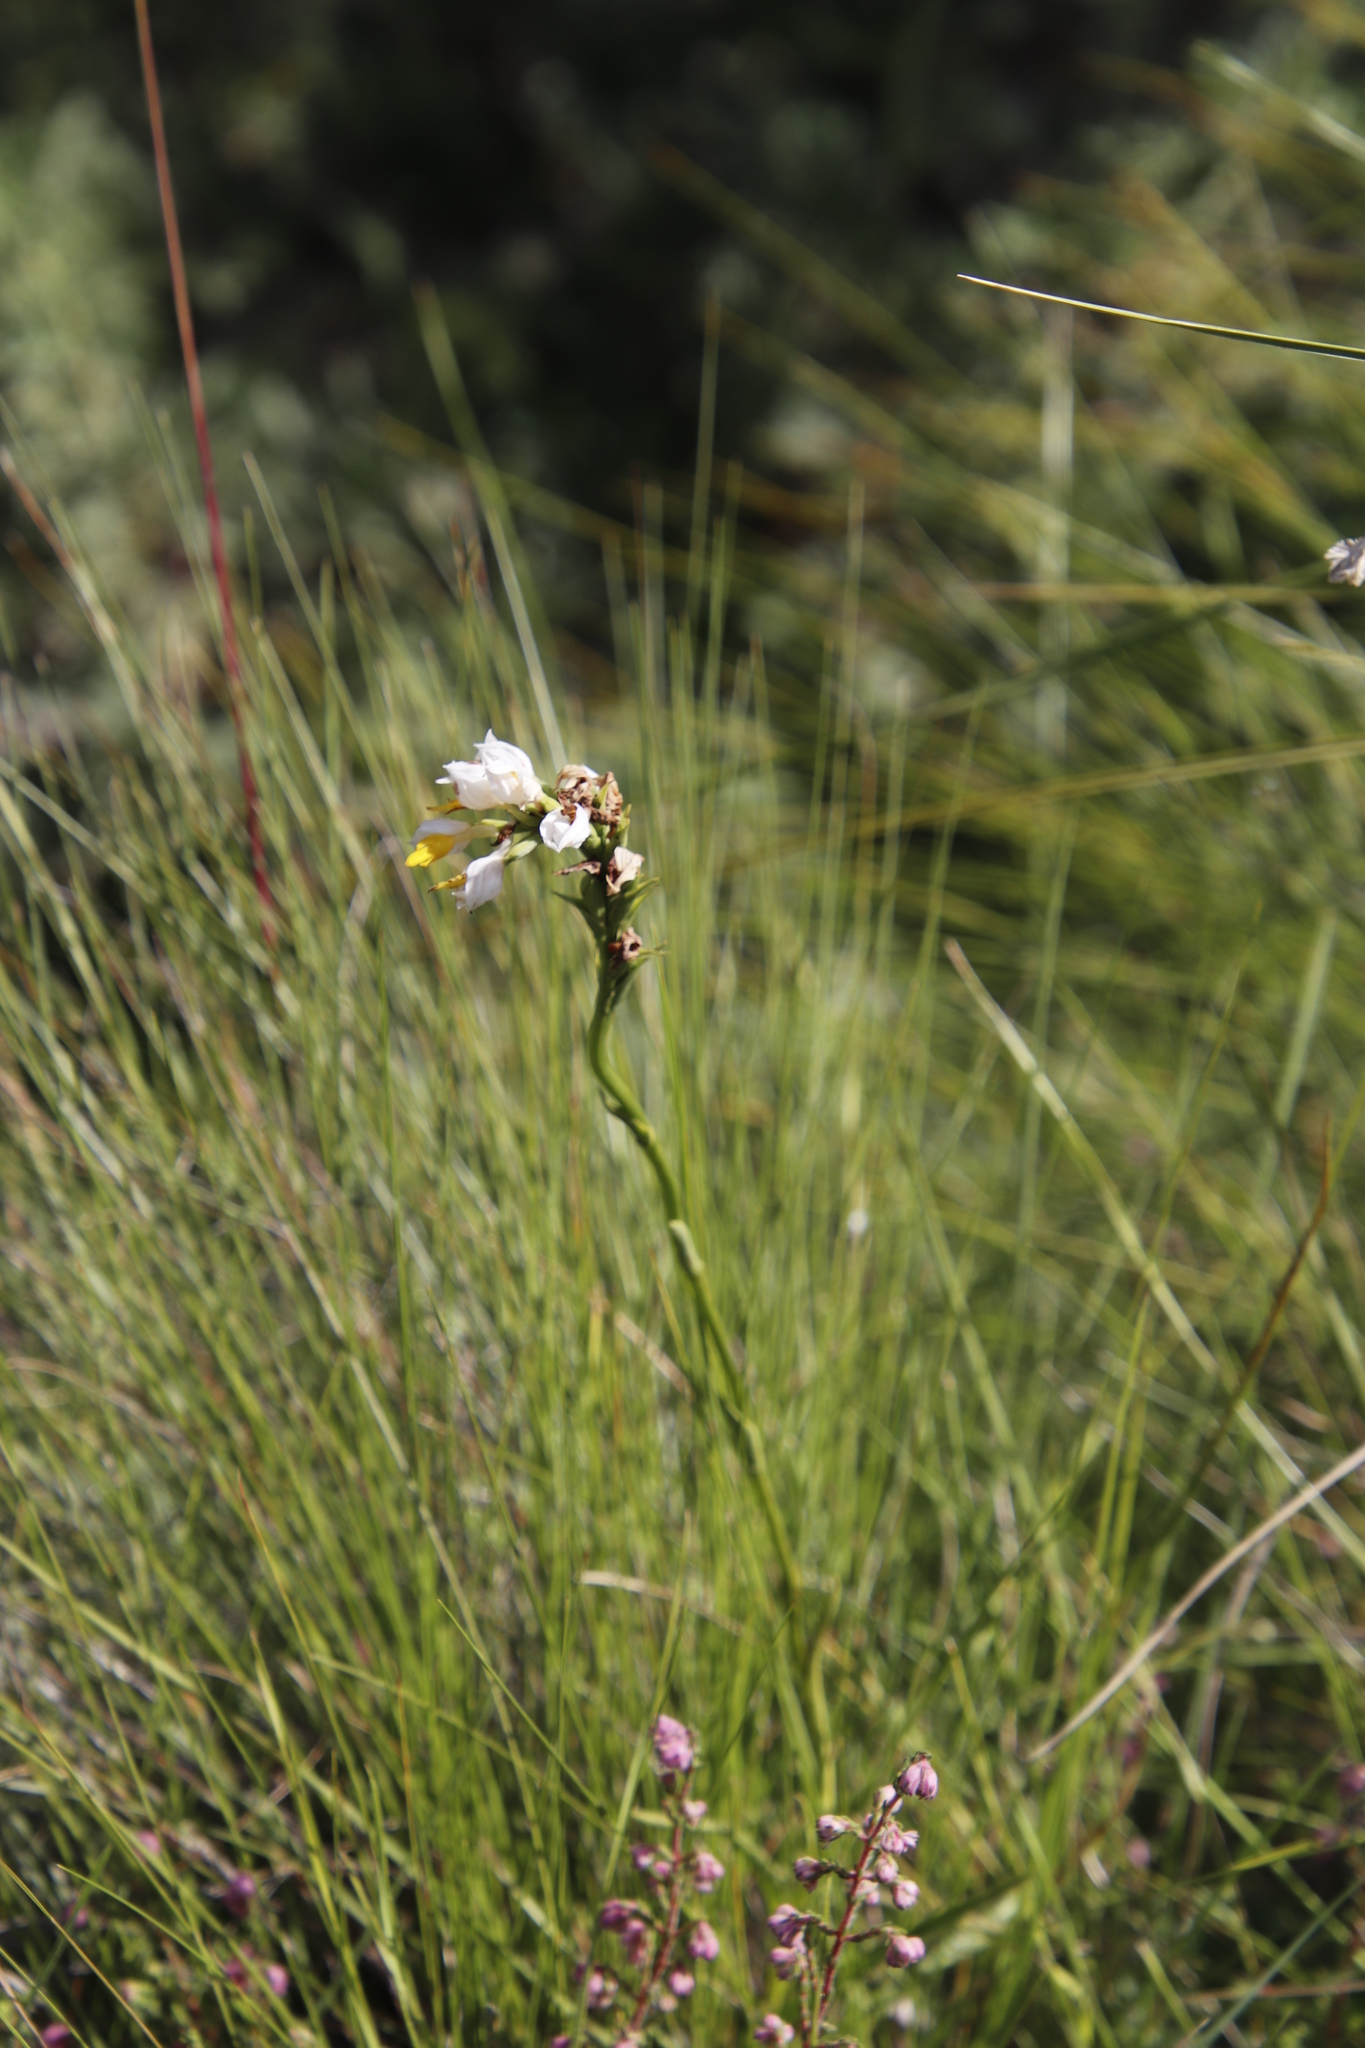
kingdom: Plantae
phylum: Tracheophyta
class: Liliopsida
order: Asparagales
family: Orchidaceae
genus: Schizochilus
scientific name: Schizochilus flexuosus
